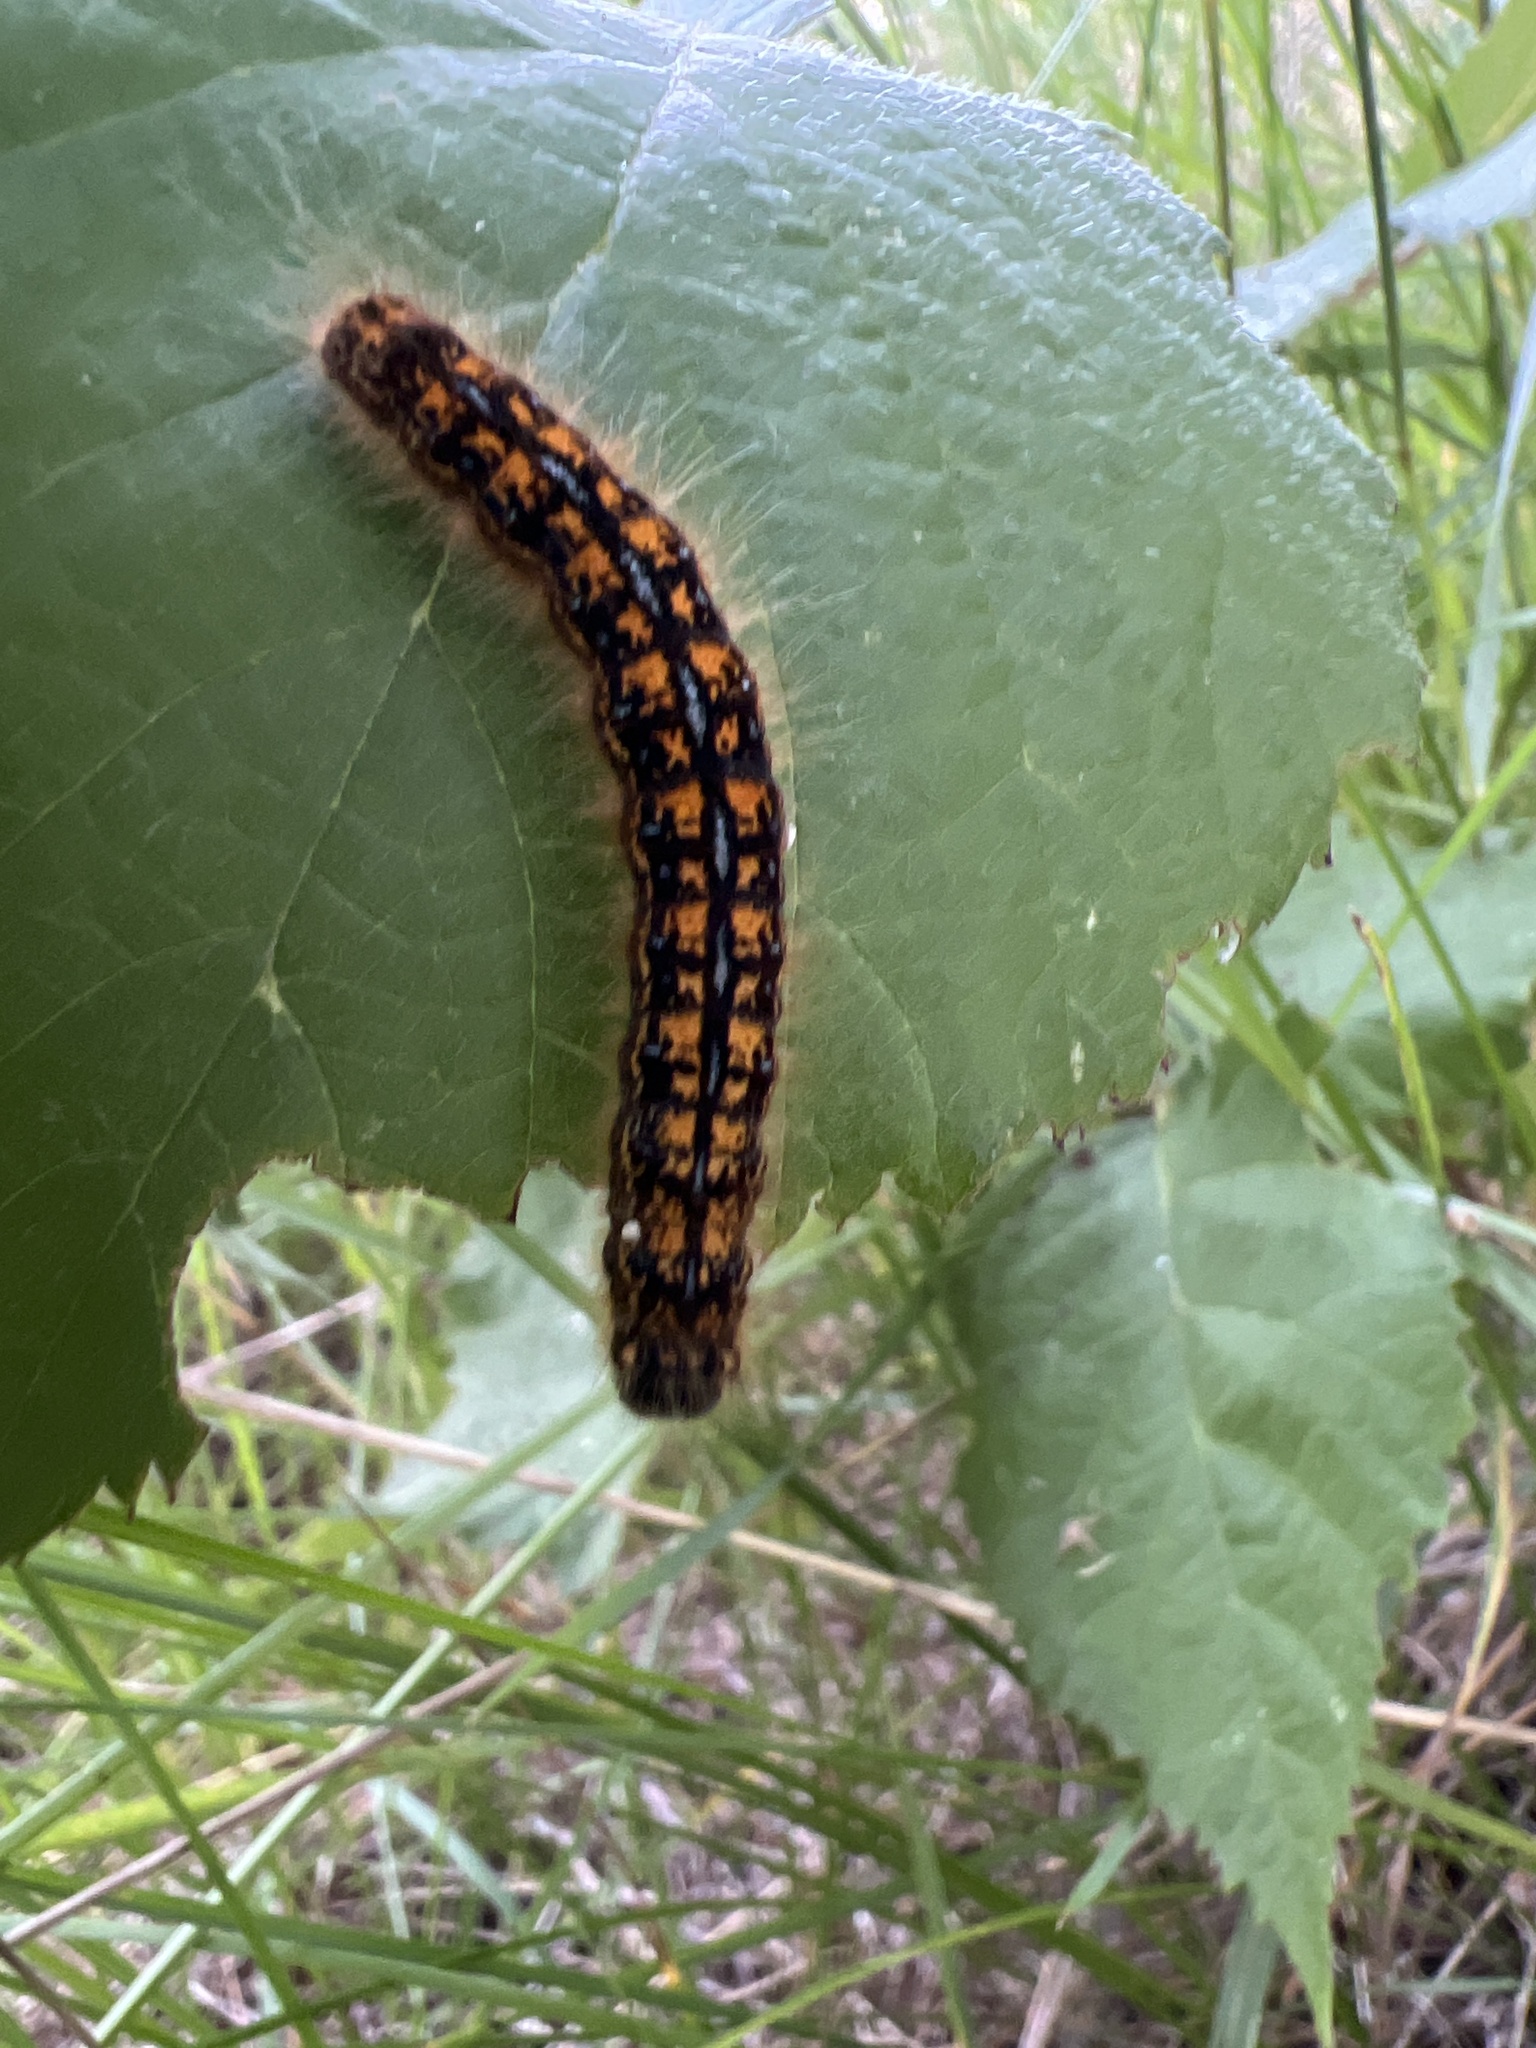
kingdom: Animalia
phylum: Arthropoda
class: Insecta
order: Lepidoptera
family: Lasiocampidae
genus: Malacosoma
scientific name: Malacosoma californica
